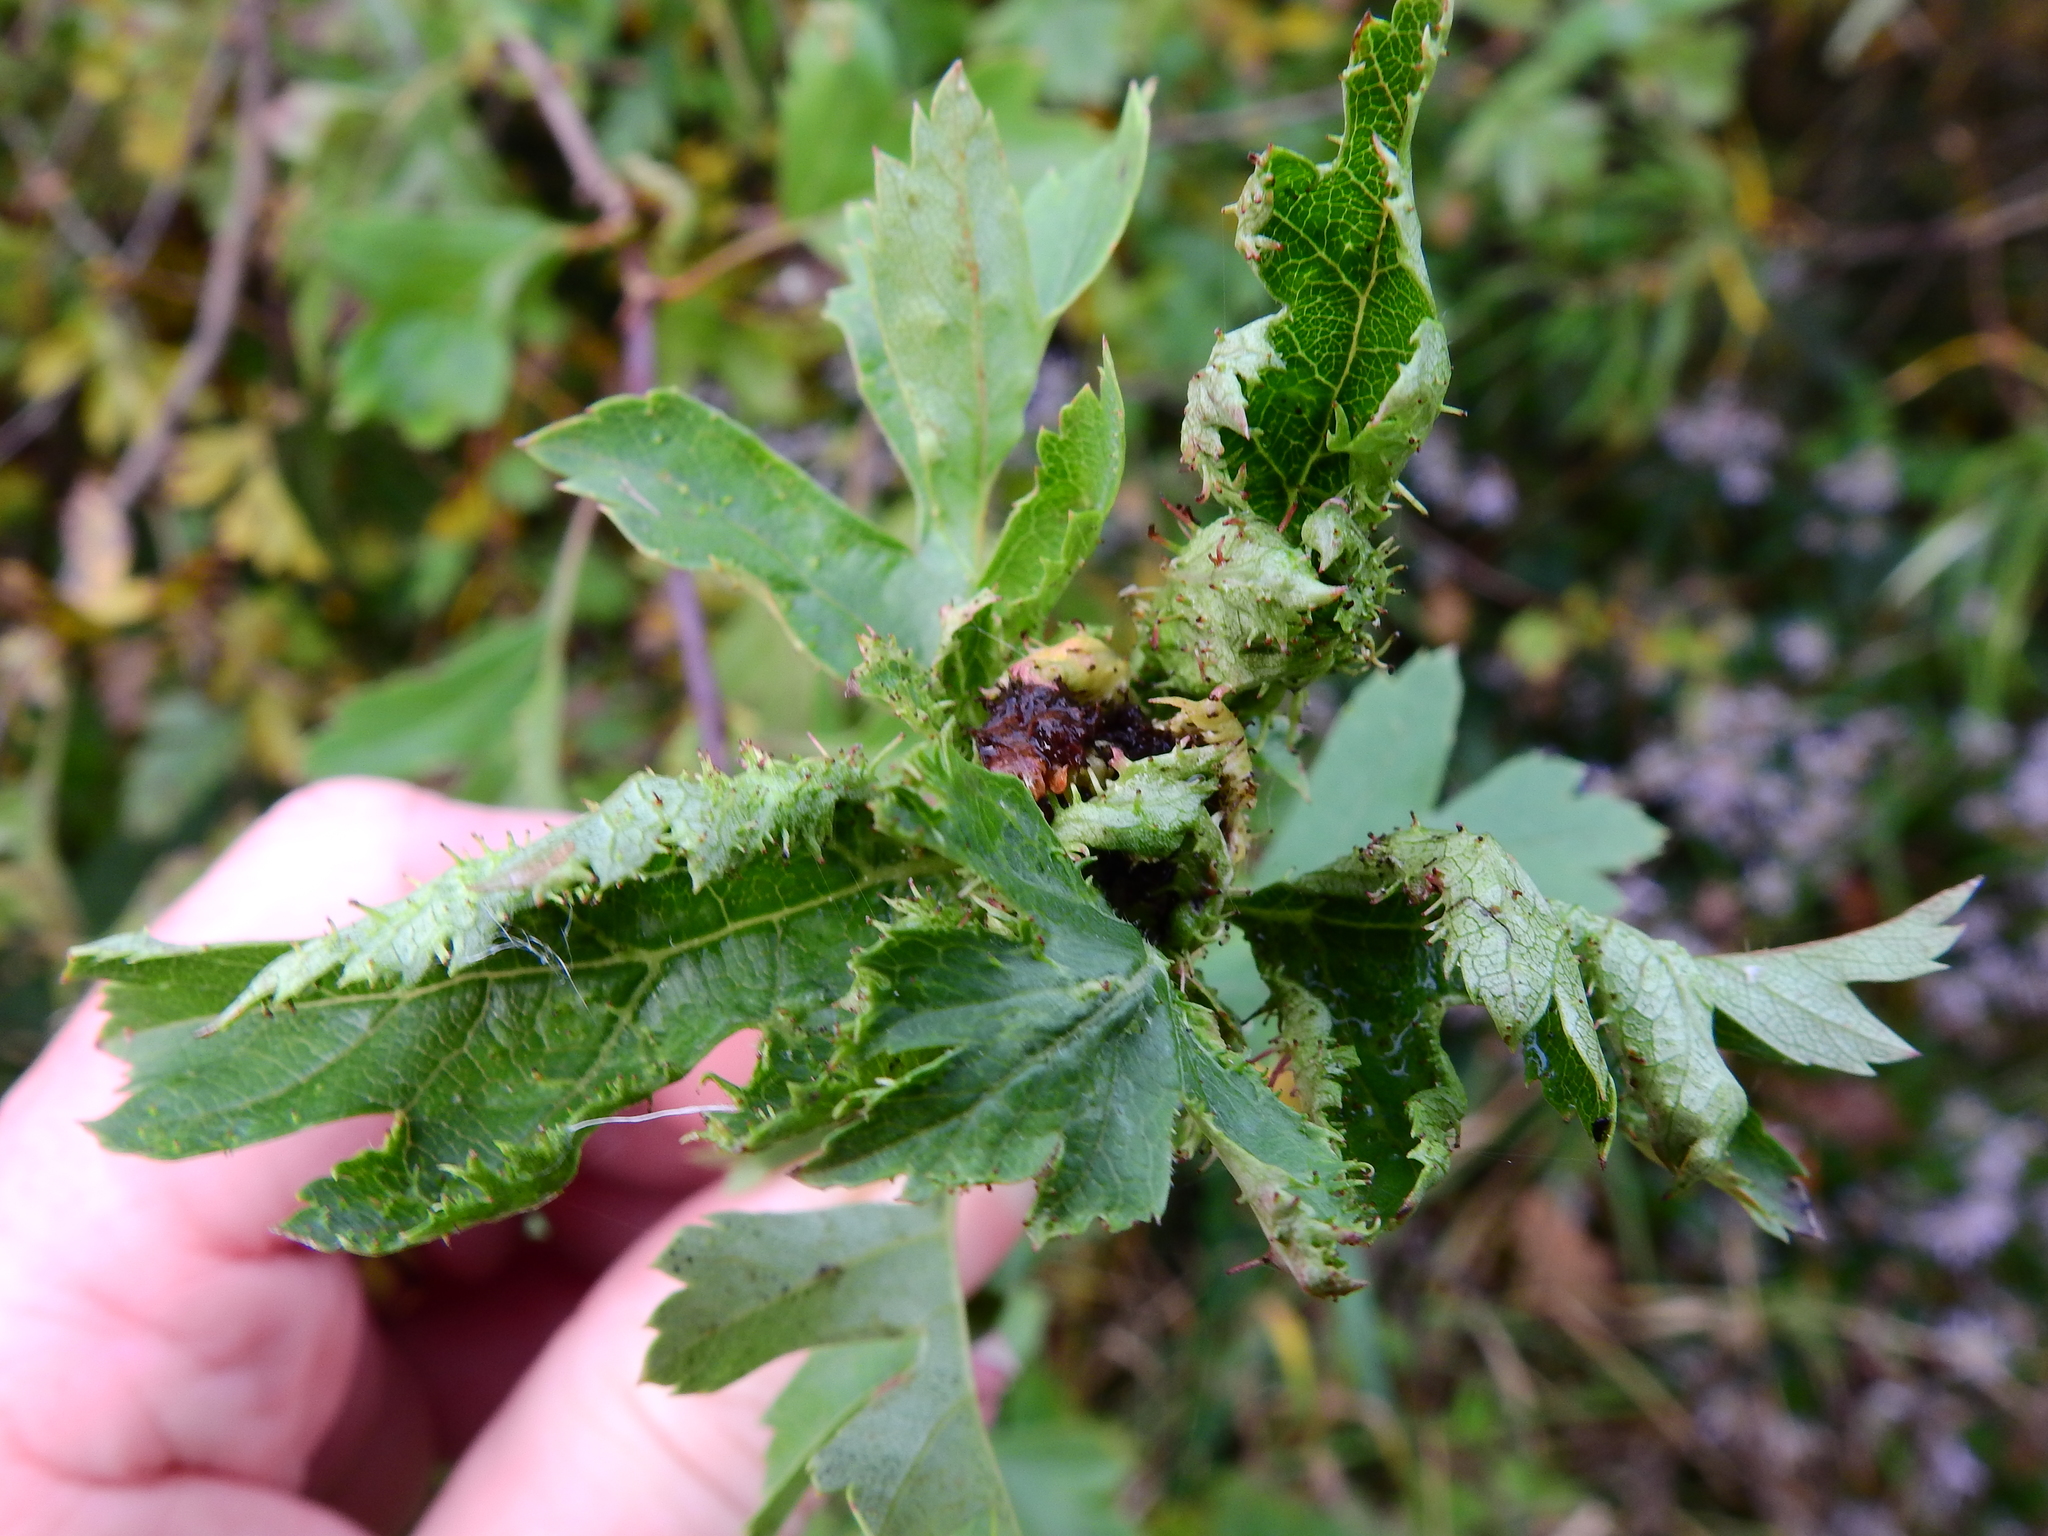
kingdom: Animalia
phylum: Arthropoda
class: Insecta
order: Diptera
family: Cecidomyiidae
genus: Dasineura
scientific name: Dasineura crataegi
